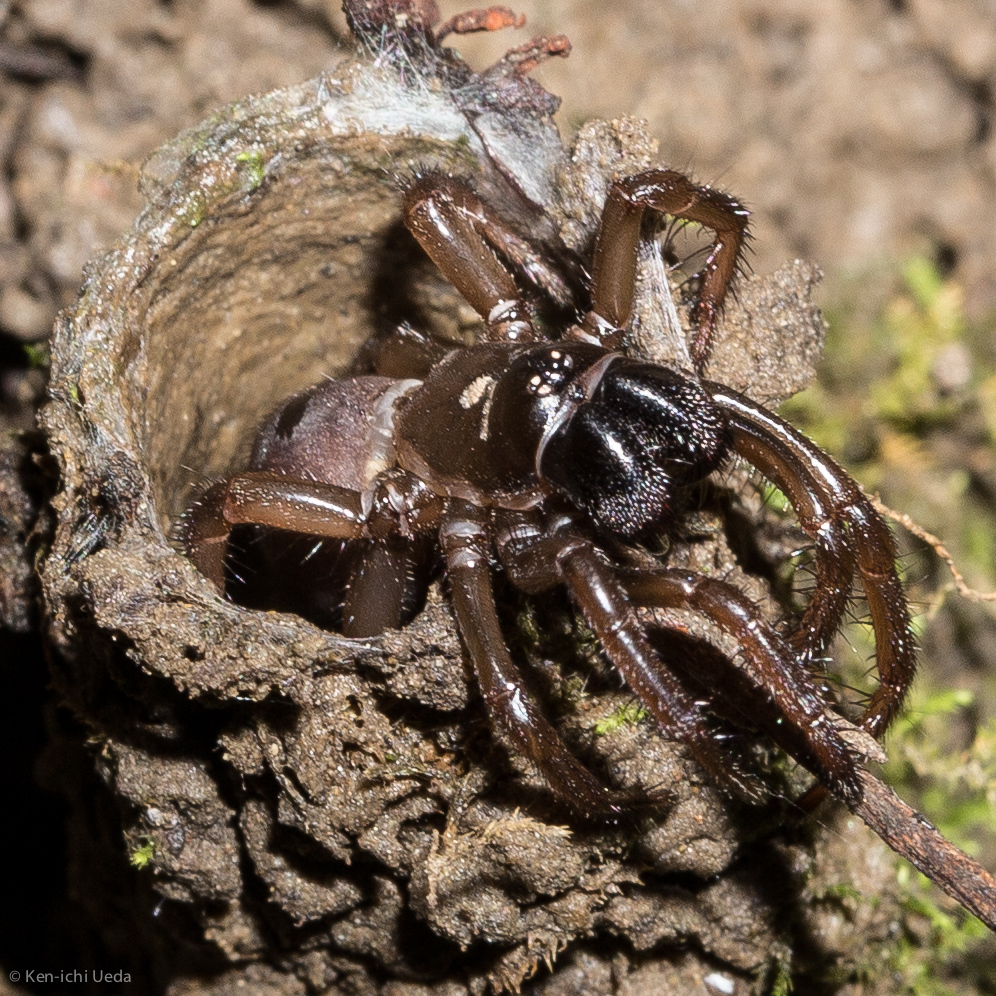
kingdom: Animalia
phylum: Arthropoda
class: Arachnida
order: Araneae
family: Antrodiaetidae
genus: Atypoides
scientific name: Atypoides riversi
